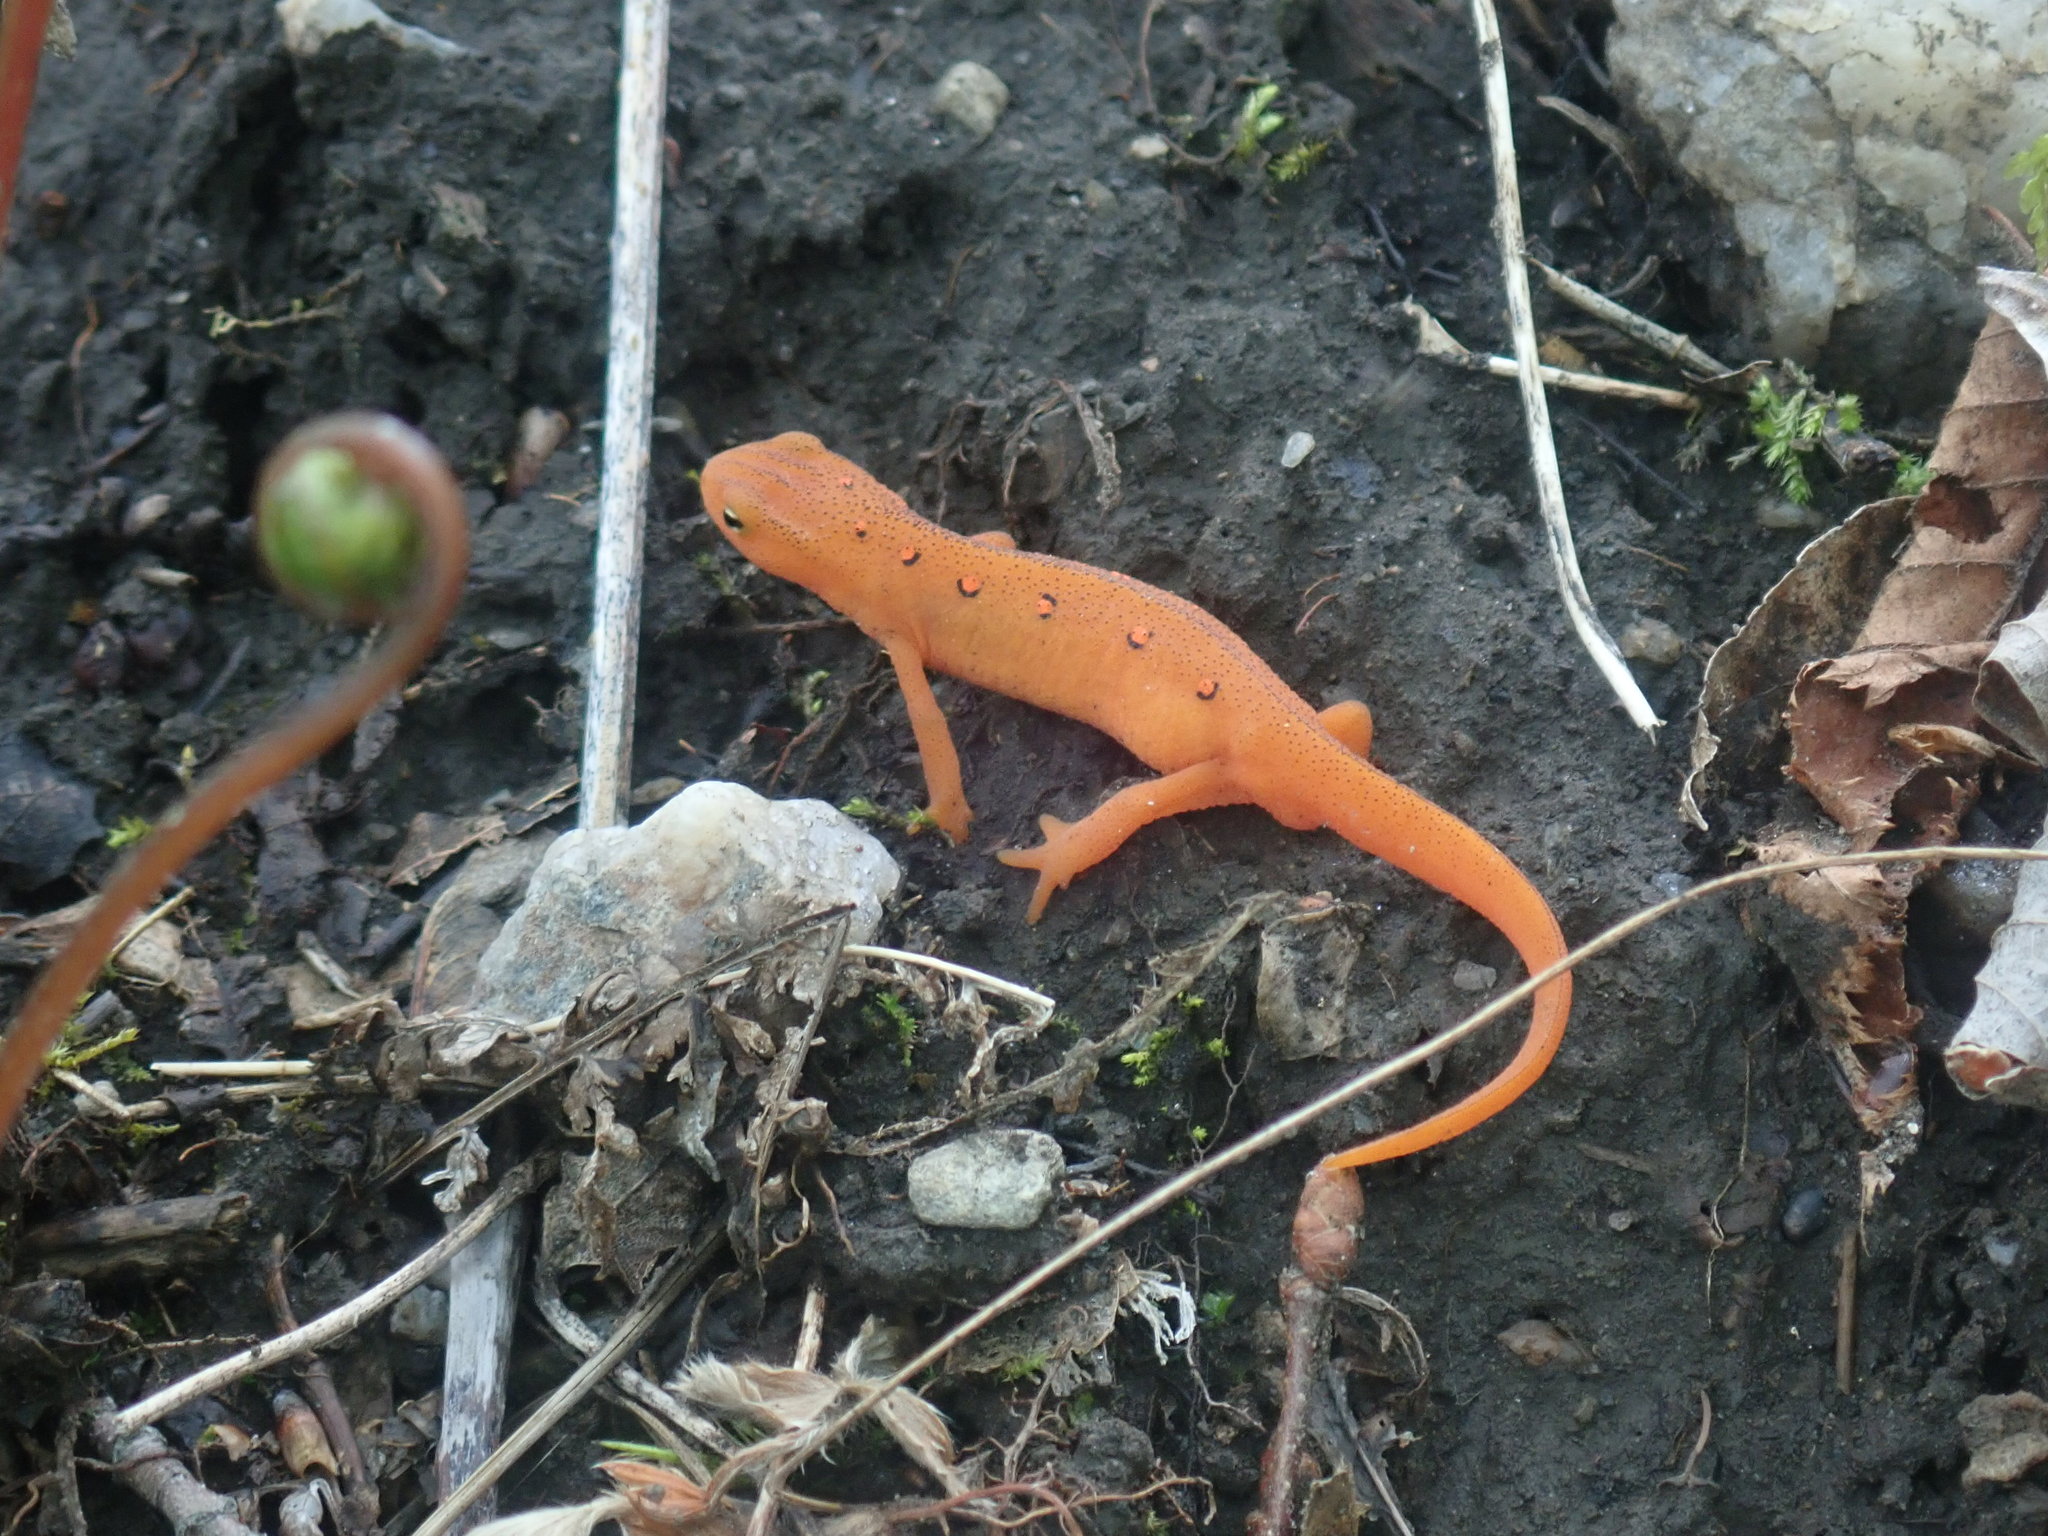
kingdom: Animalia
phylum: Chordata
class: Amphibia
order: Caudata
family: Salamandridae
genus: Notophthalmus
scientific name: Notophthalmus viridescens
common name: Eastern newt
